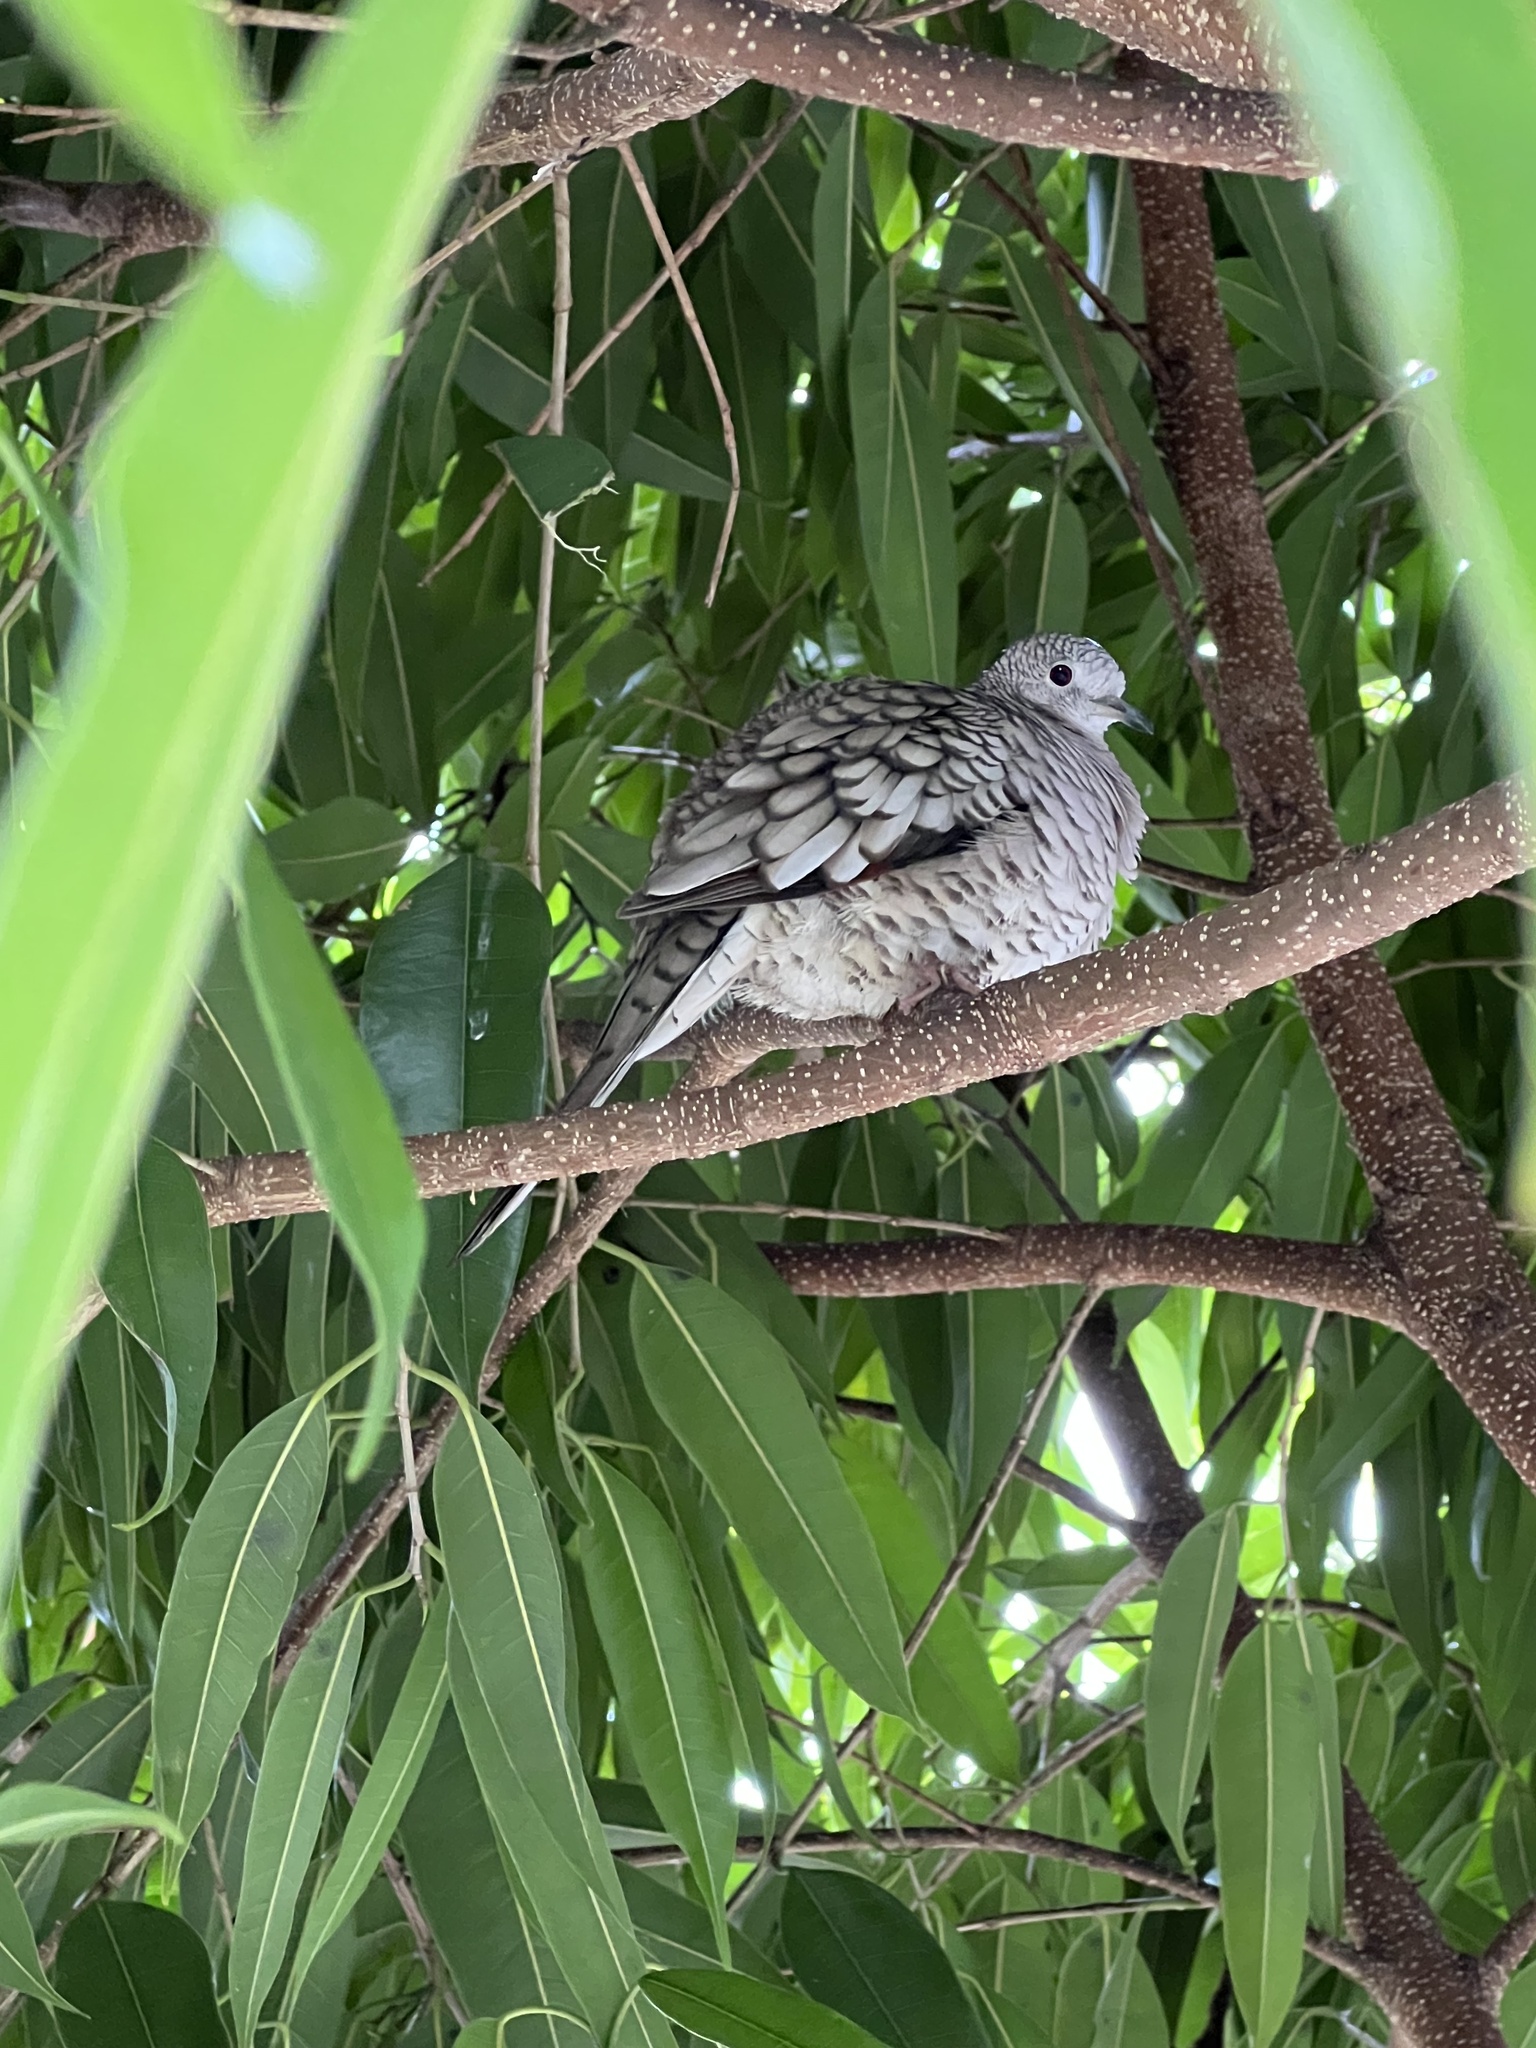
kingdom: Animalia
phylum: Chordata
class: Aves
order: Columbiformes
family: Columbidae
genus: Columbina
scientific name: Columbina inca
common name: Inca dove
